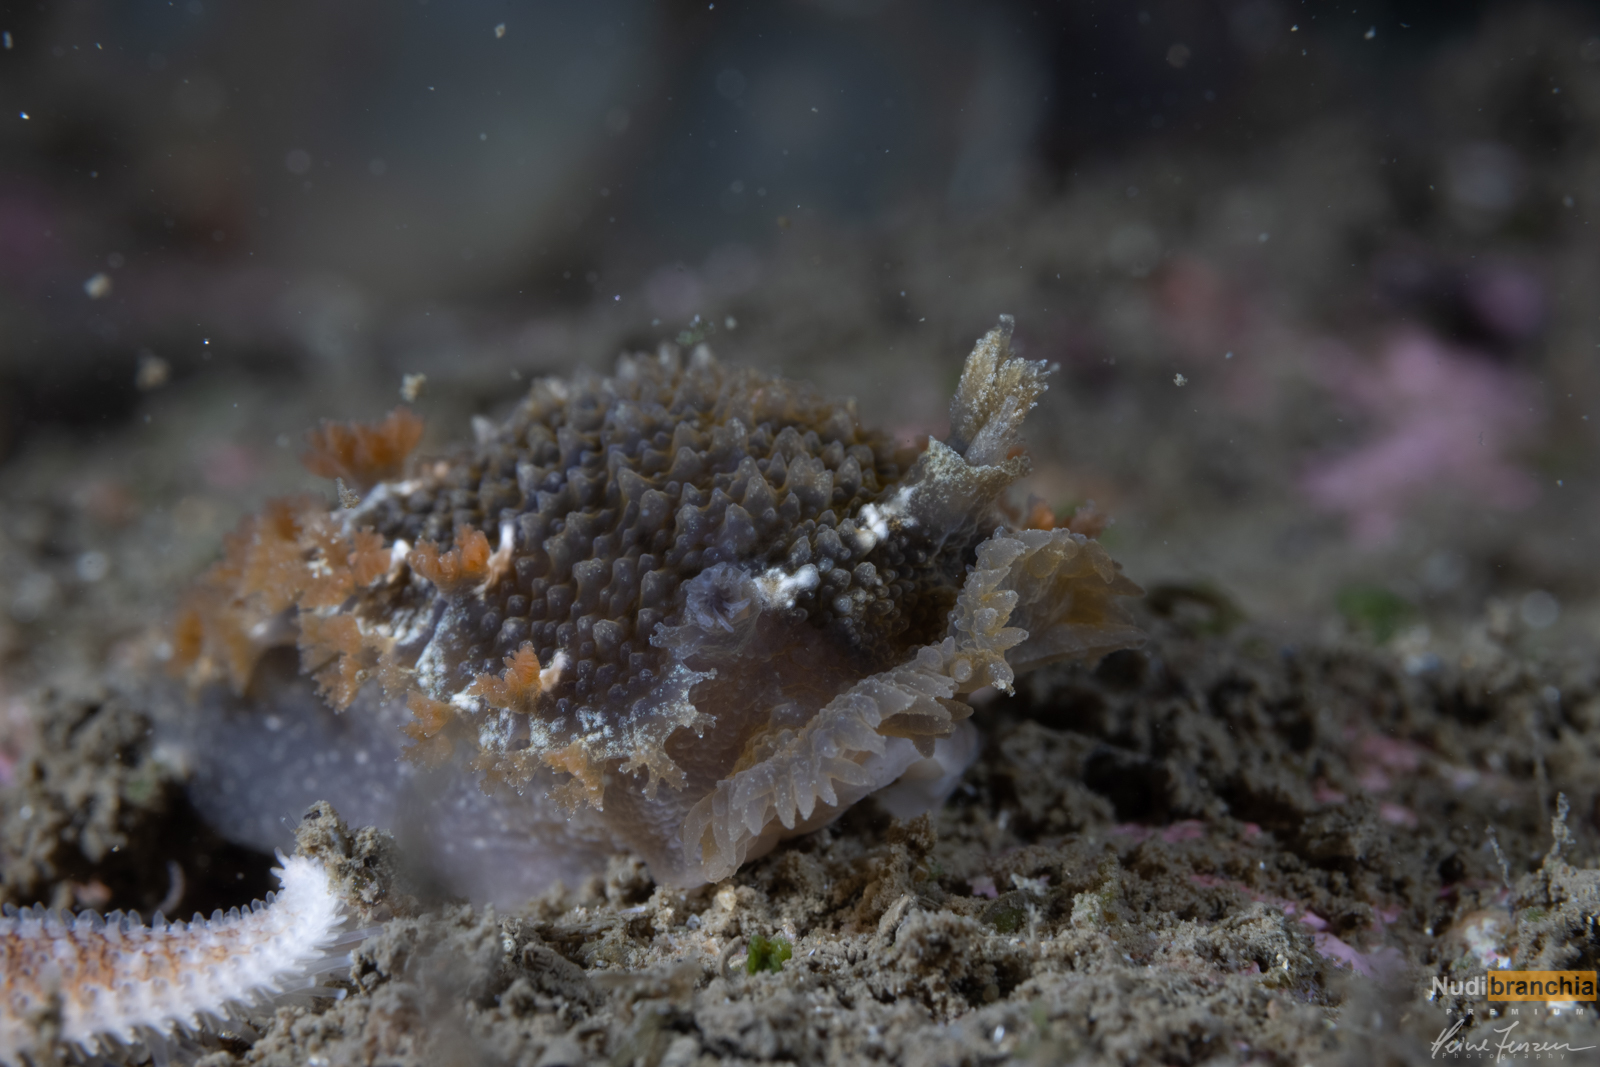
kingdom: Animalia
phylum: Mollusca
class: Gastropoda
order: Nudibranchia
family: Tritoniidae
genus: Tritonia
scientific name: Tritonia hombergii
